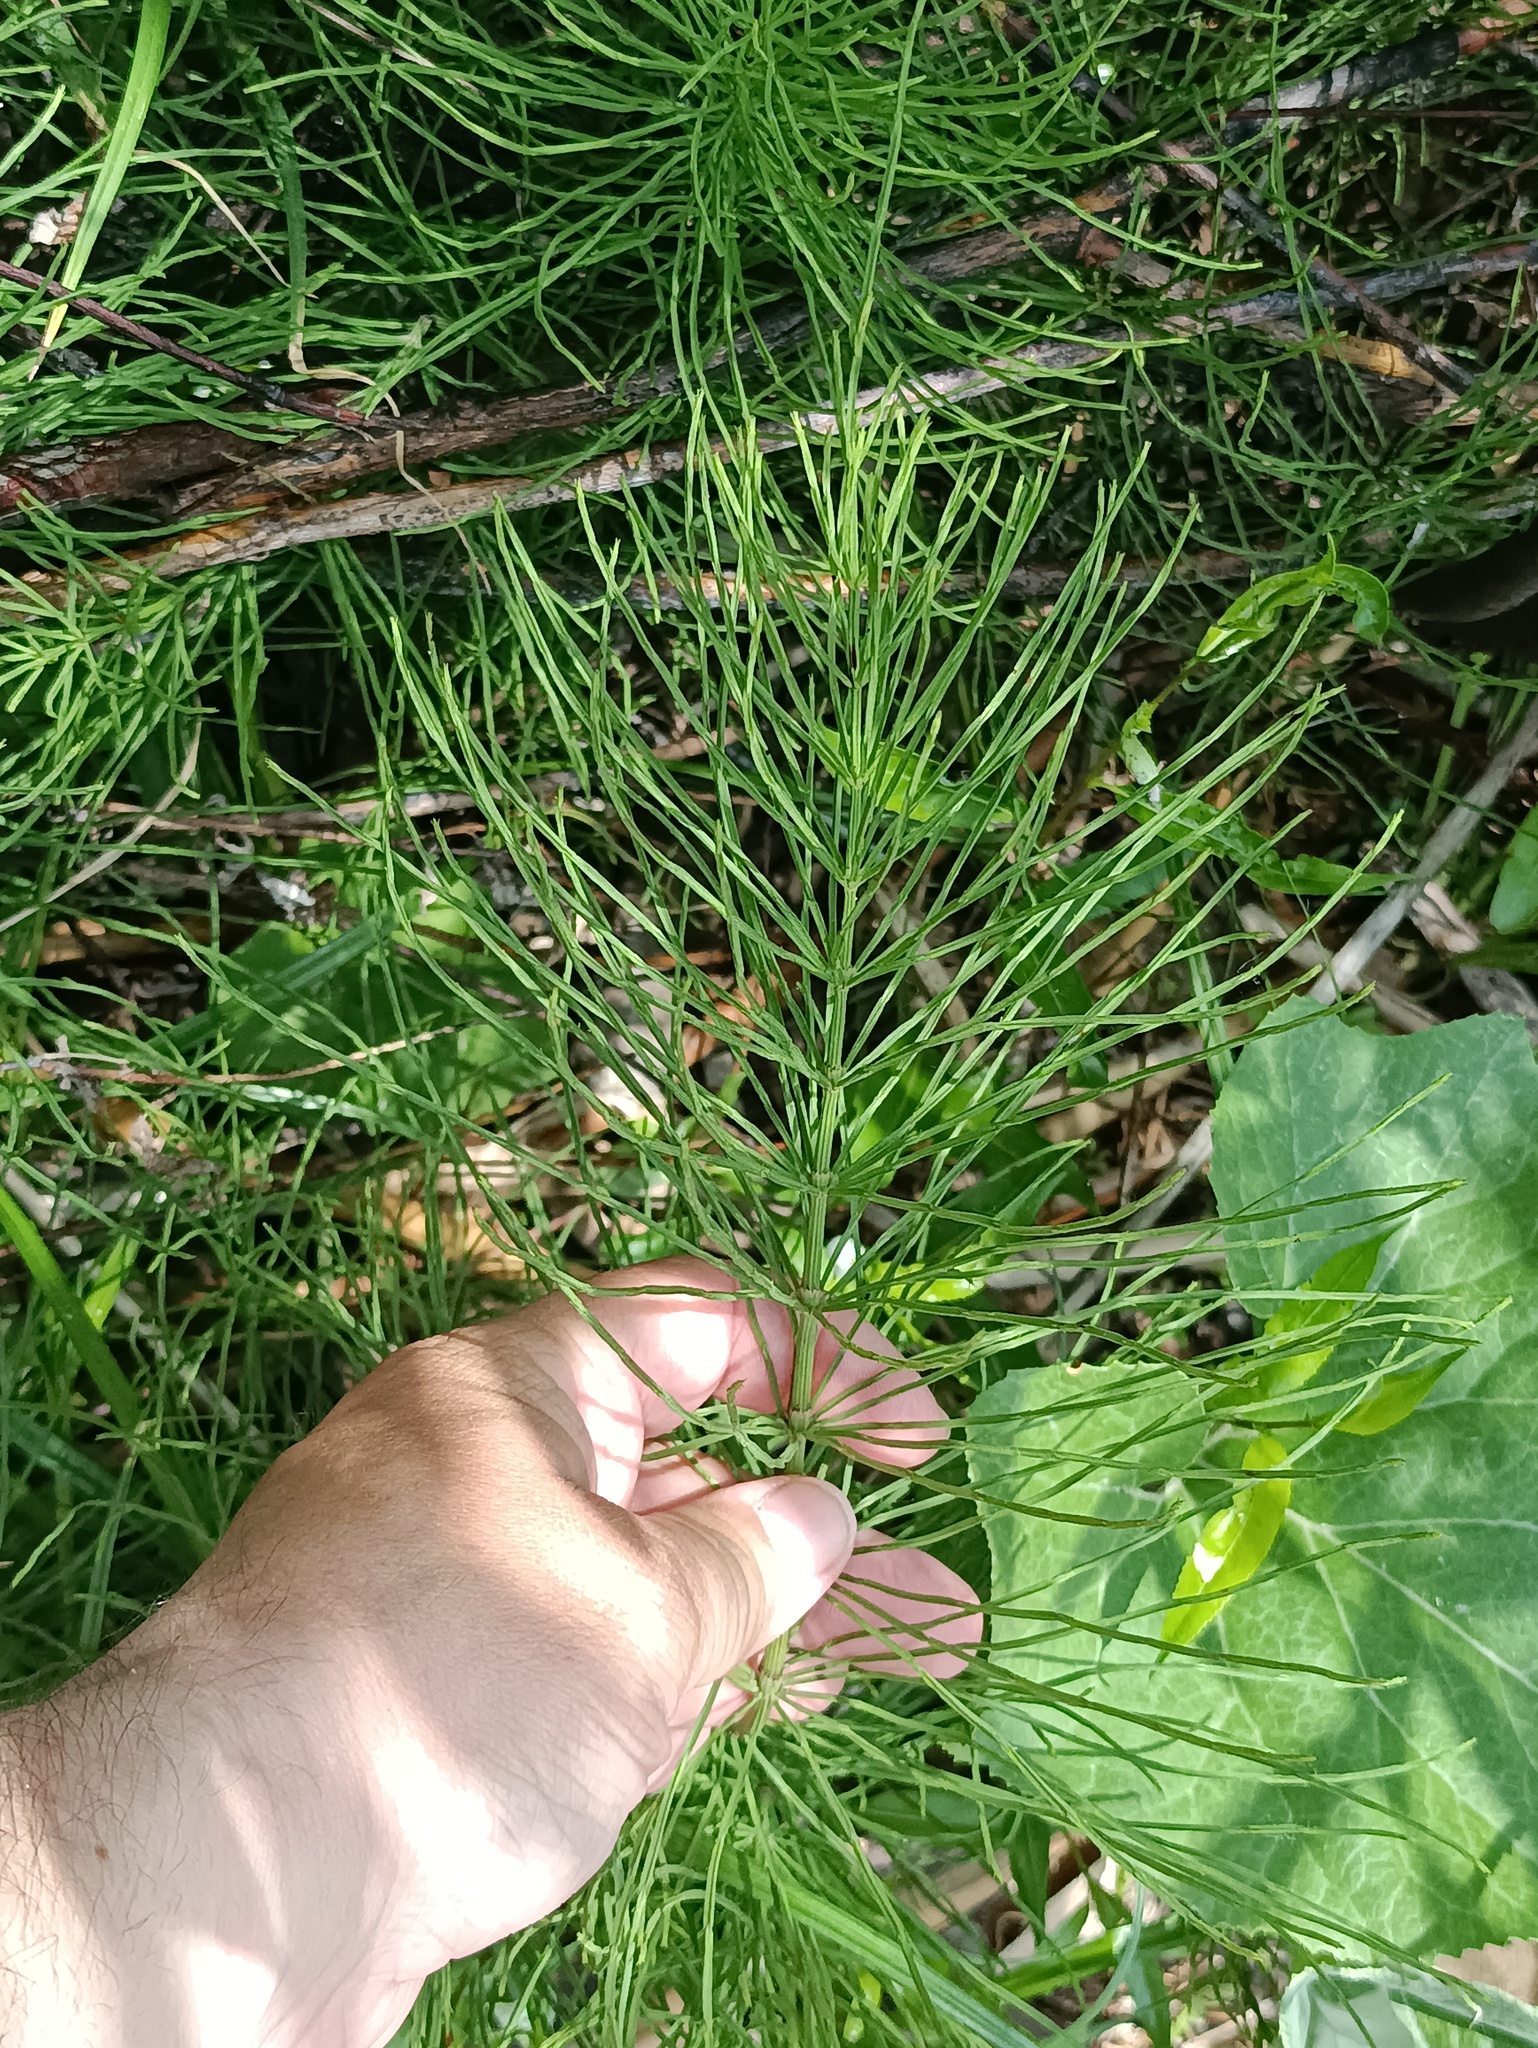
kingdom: Plantae
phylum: Tracheophyta
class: Polypodiopsida
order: Equisetales
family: Equisetaceae
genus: Equisetum
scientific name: Equisetum arvense
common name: Field horsetail
